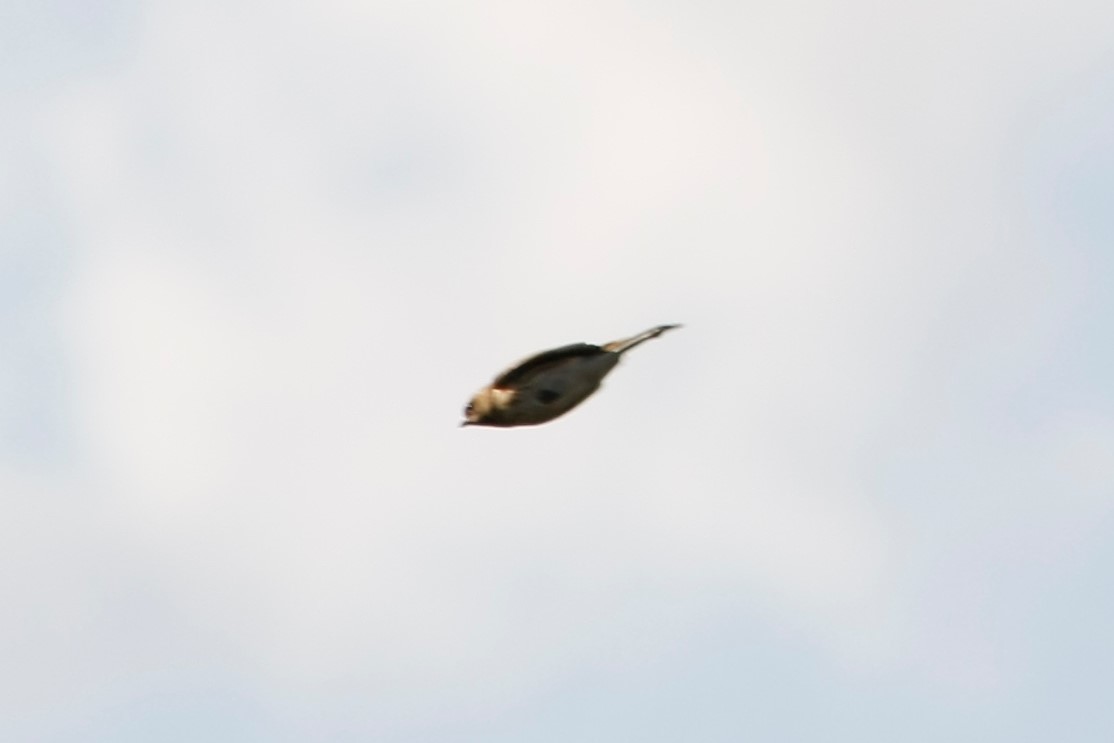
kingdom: Animalia
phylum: Chordata
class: Aves
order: Passeriformes
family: Emberizidae
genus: Emberiza
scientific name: Emberiza schoeniclus
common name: Reed bunting
